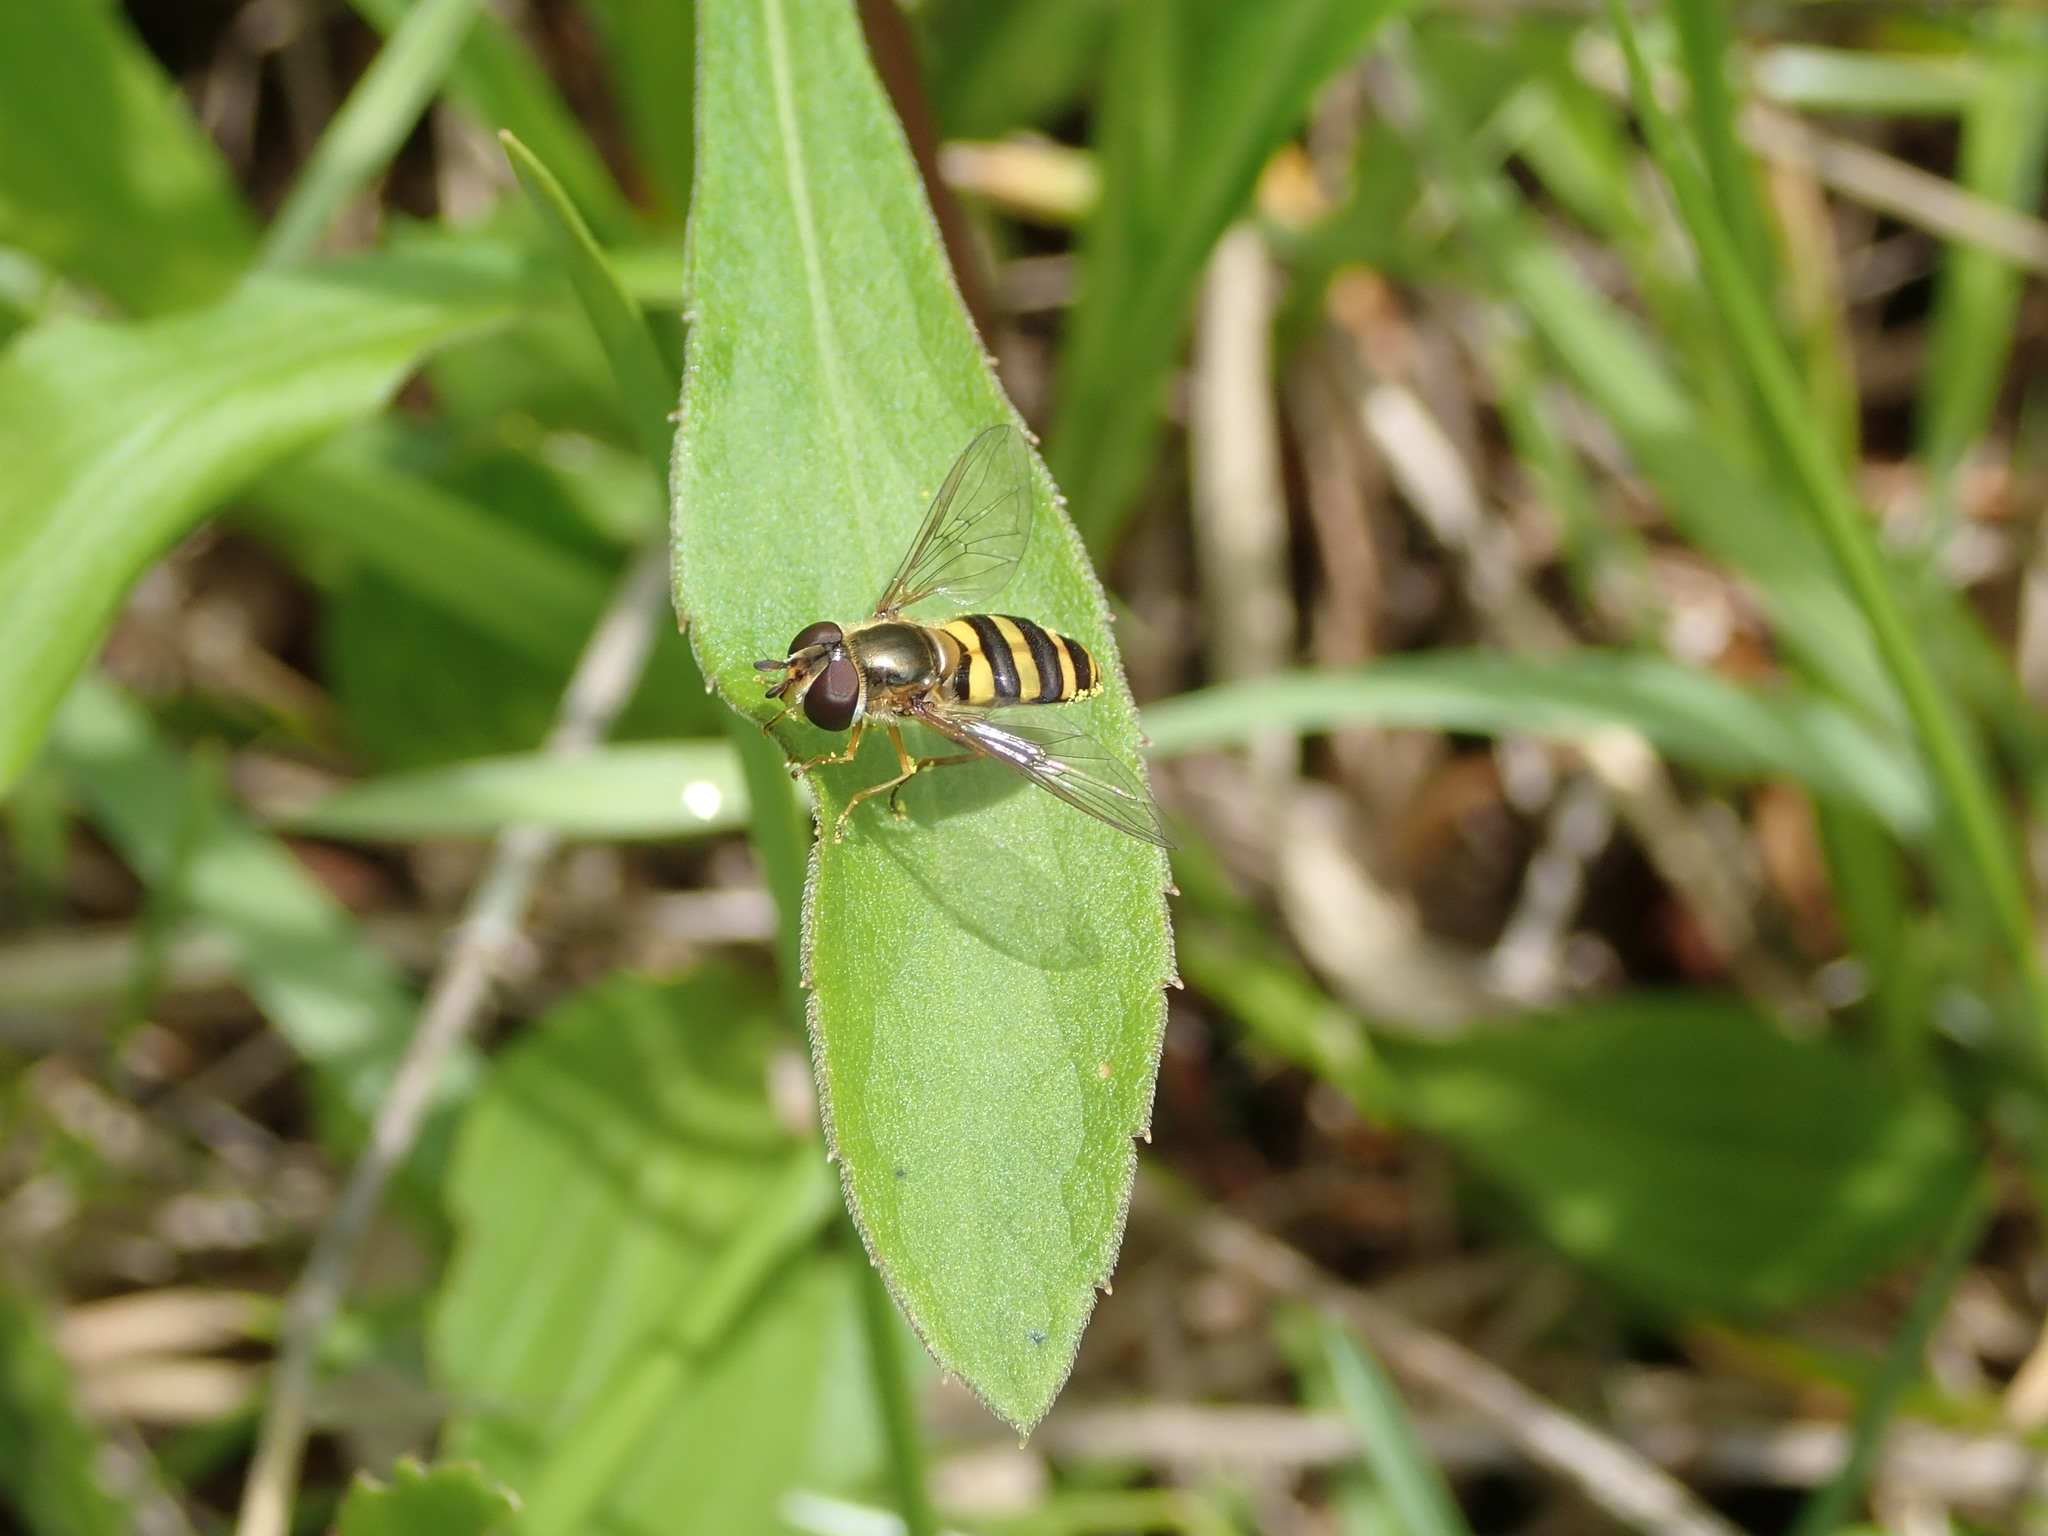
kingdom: Animalia
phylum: Arthropoda
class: Insecta
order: Diptera
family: Syrphidae
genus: Eupeodes
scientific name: Eupeodes
